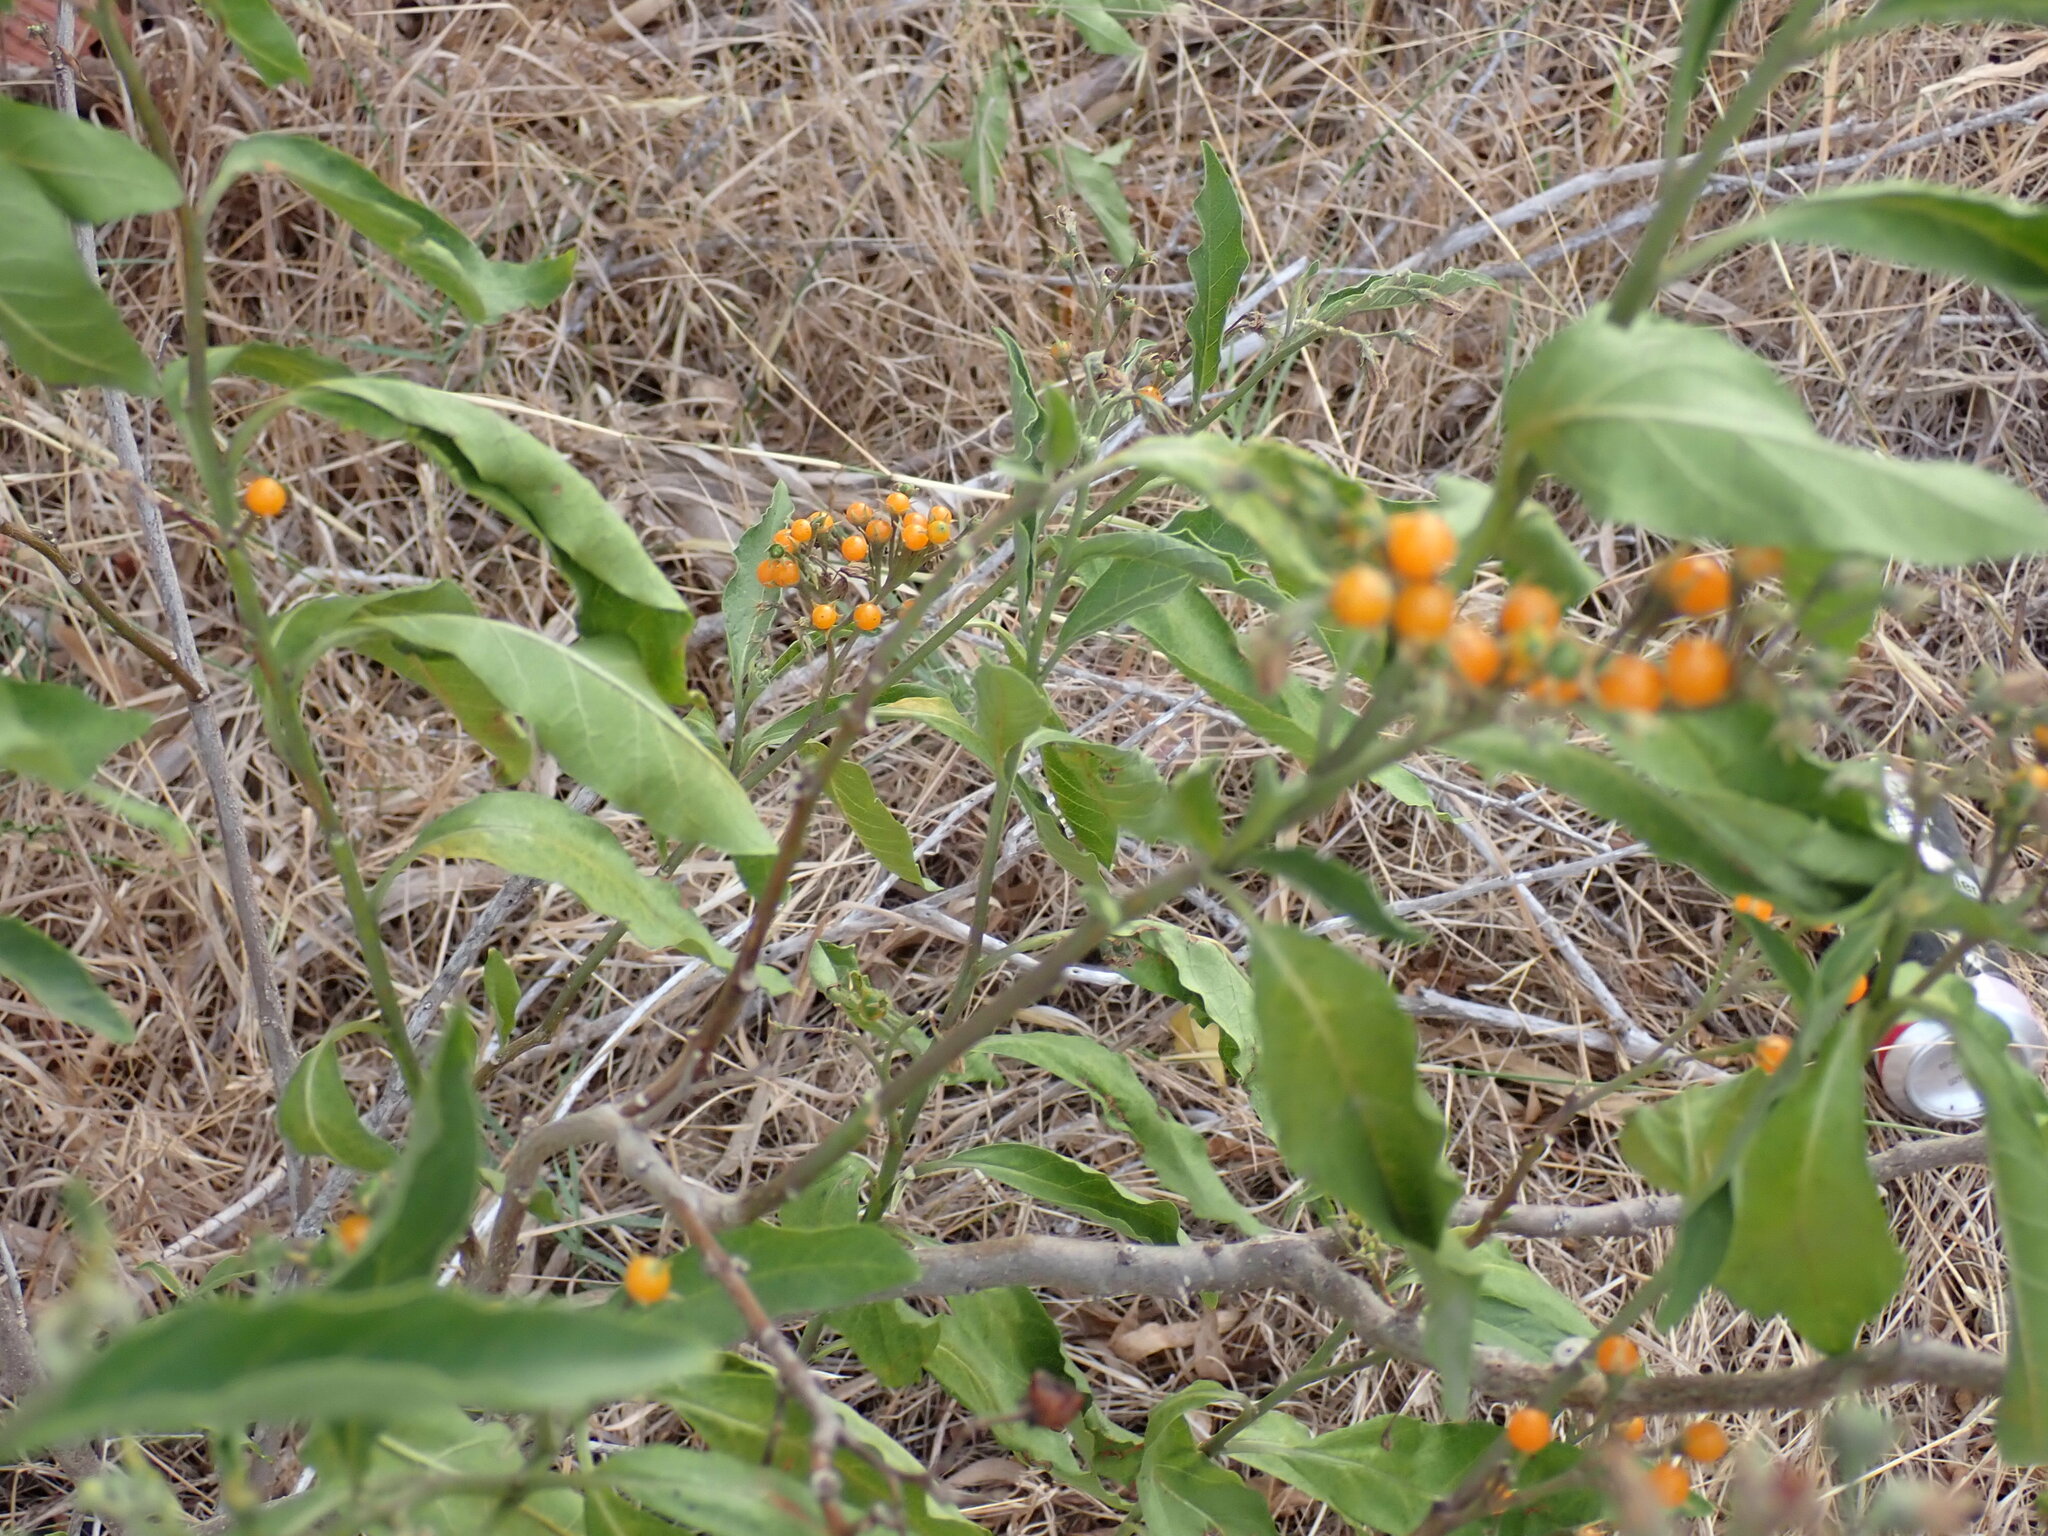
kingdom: Plantae
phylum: Tracheophyta
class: Magnoliopsida
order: Solanales
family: Solanaceae
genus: Solanum
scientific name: Solanum bonariense
